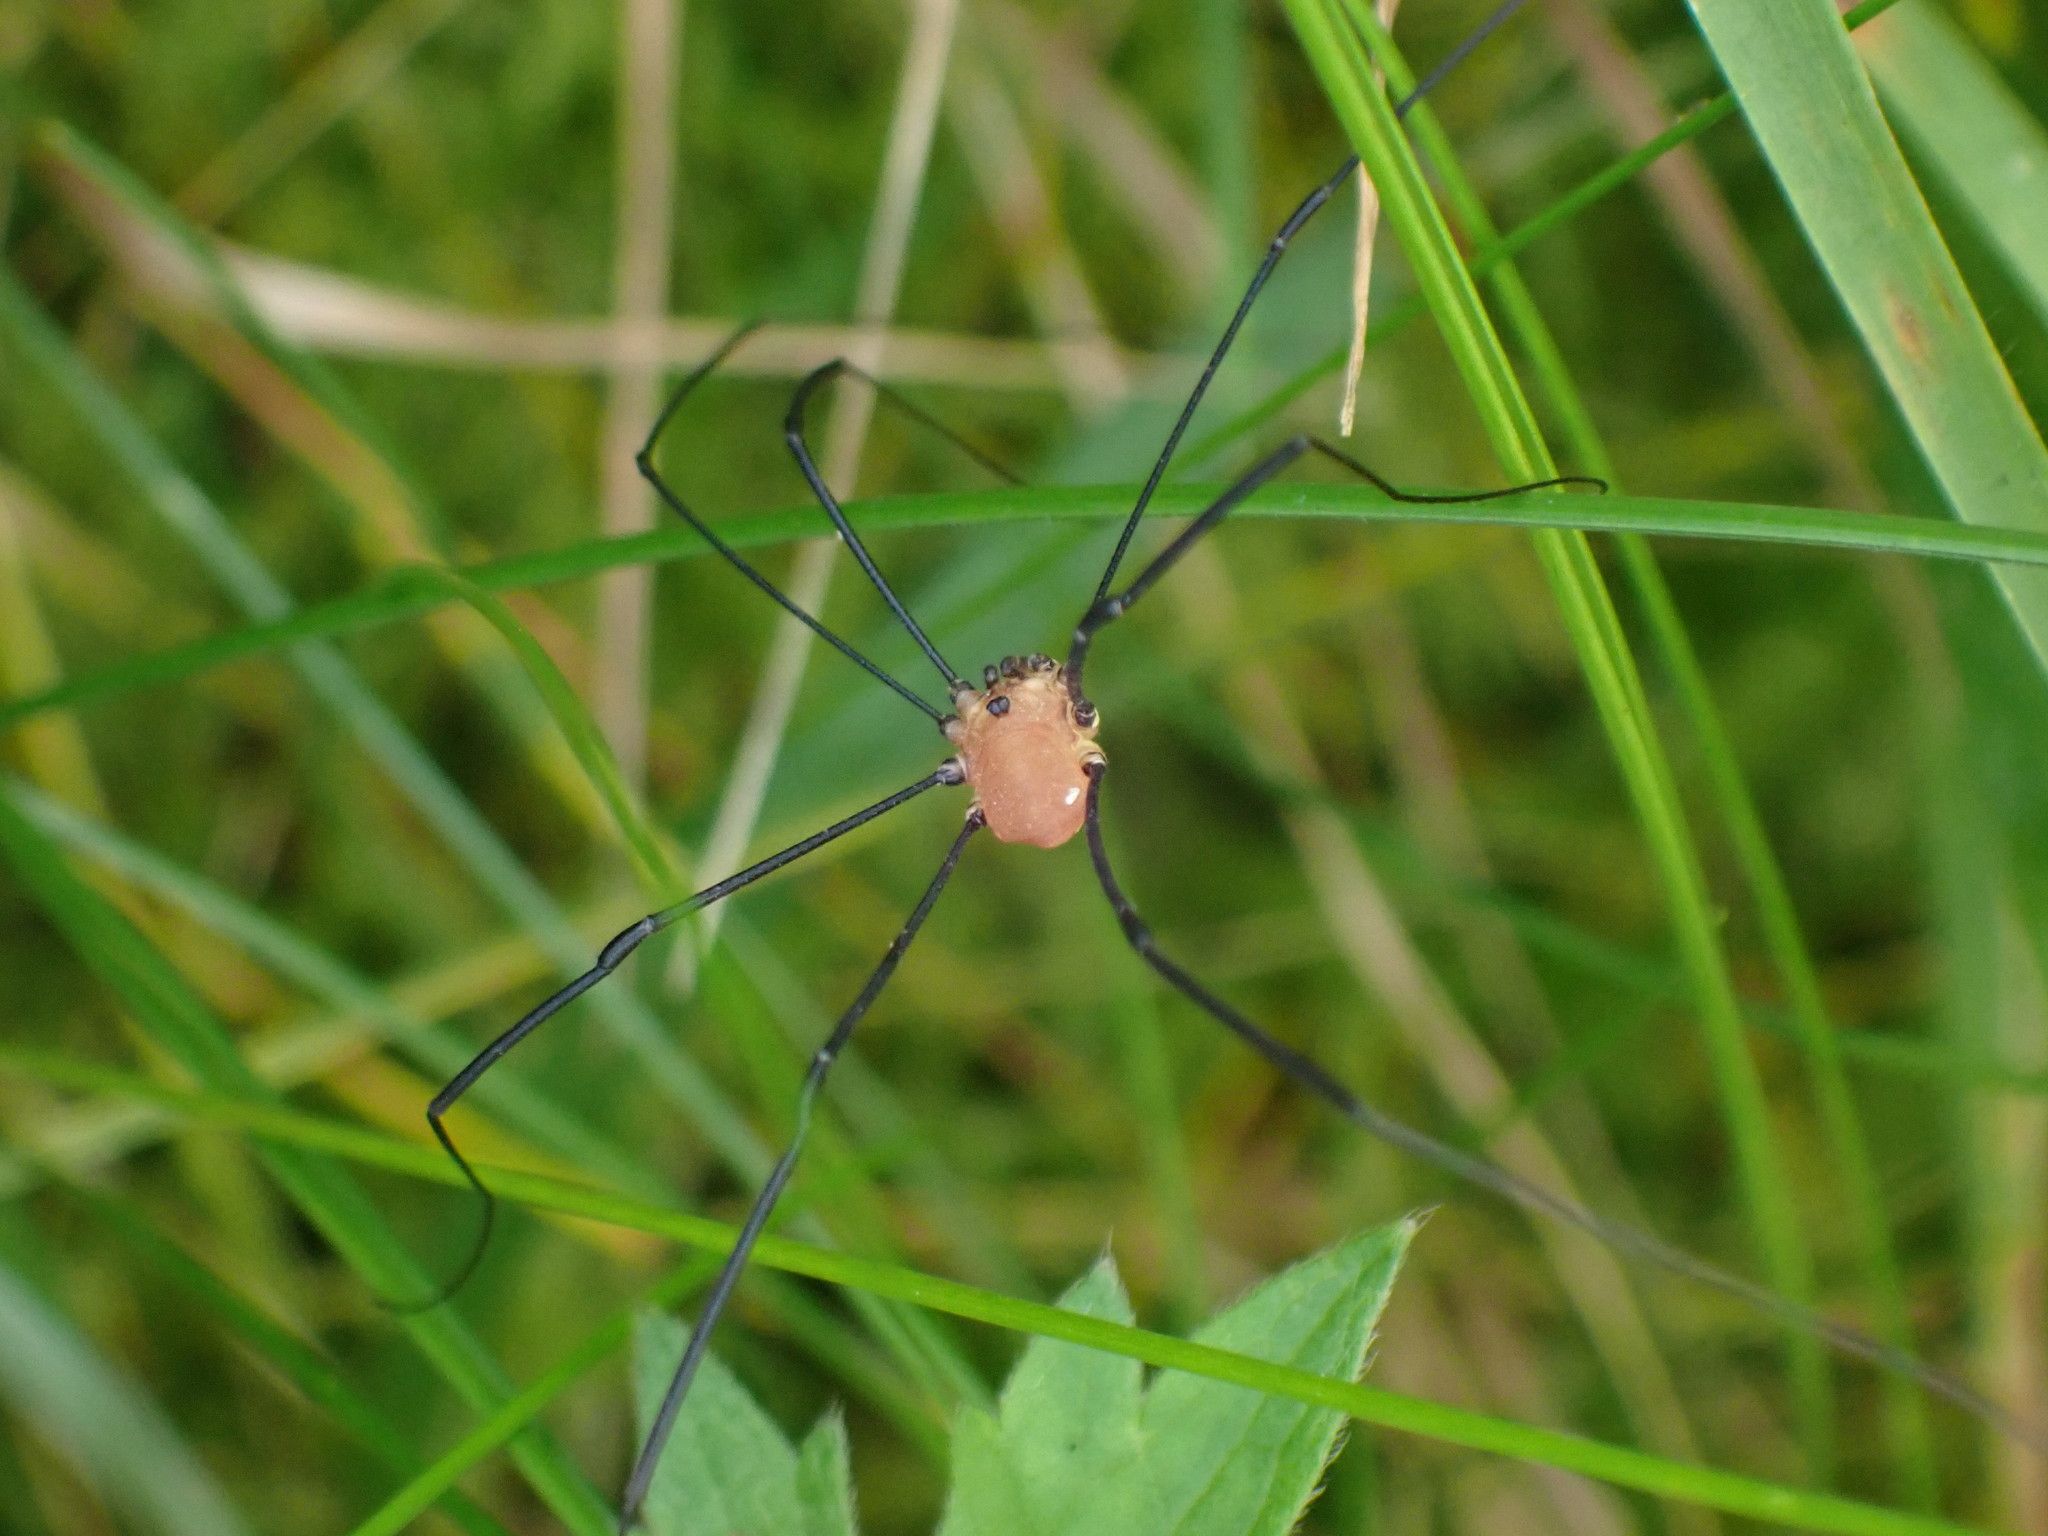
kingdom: Animalia
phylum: Arthropoda
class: Arachnida
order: Opiliones
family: Sclerosomatidae
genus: Leiobunum
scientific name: Leiobunum rotundum
